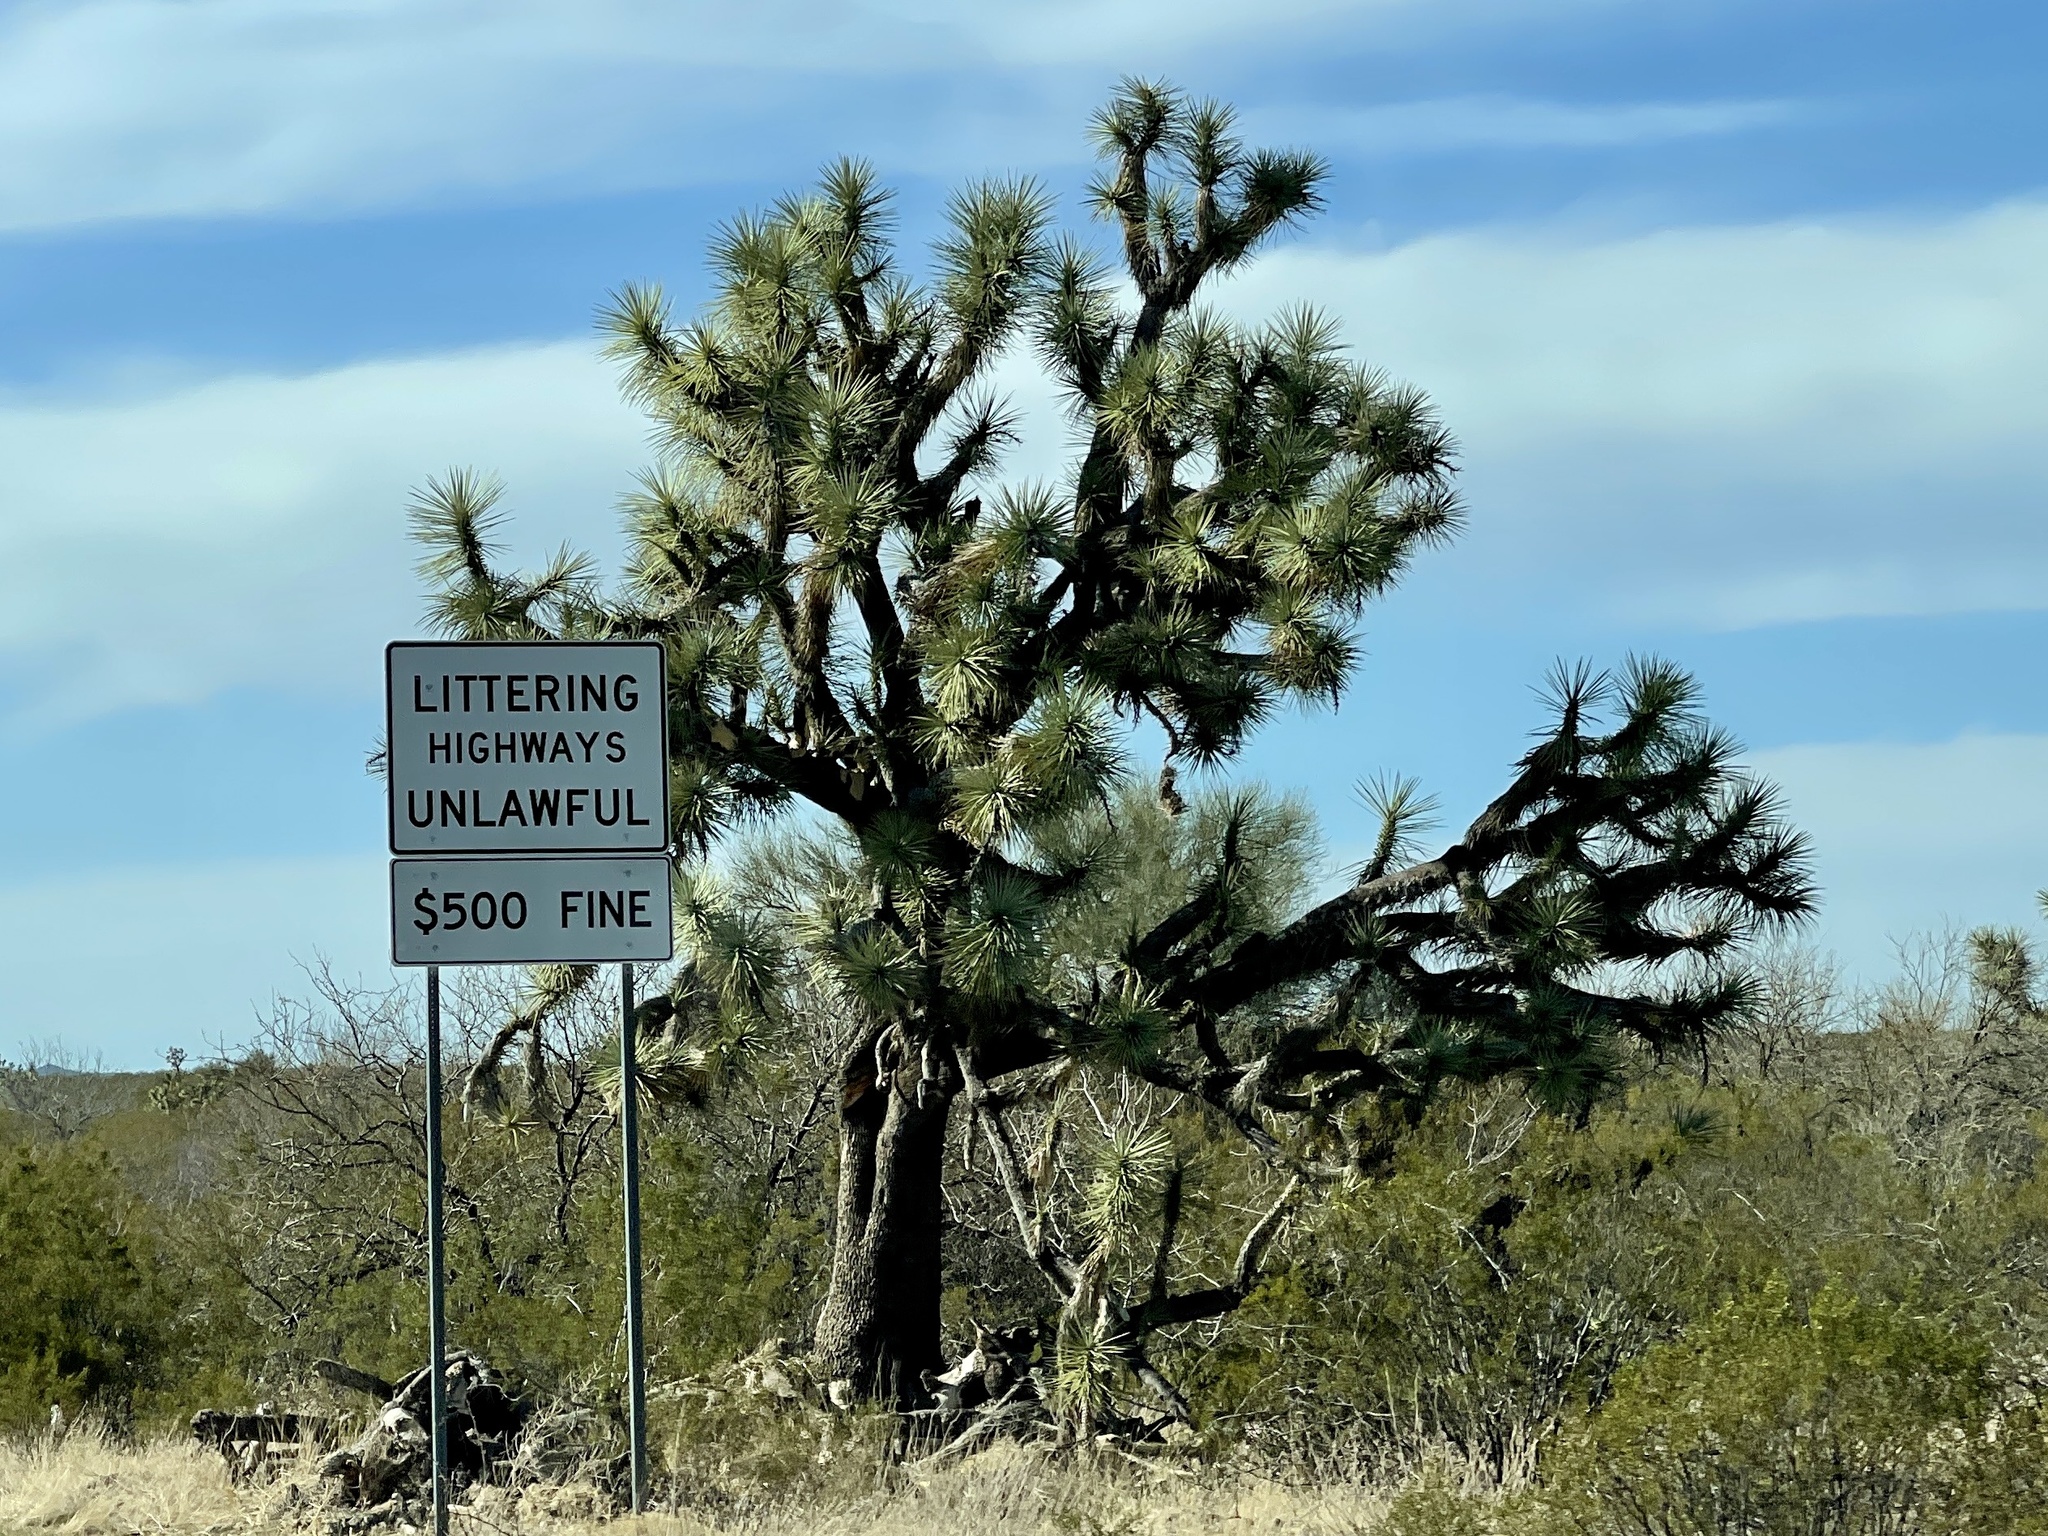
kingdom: Plantae
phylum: Tracheophyta
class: Liliopsida
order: Asparagales
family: Asparagaceae
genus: Yucca
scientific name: Yucca brevifolia
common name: Joshua tree
